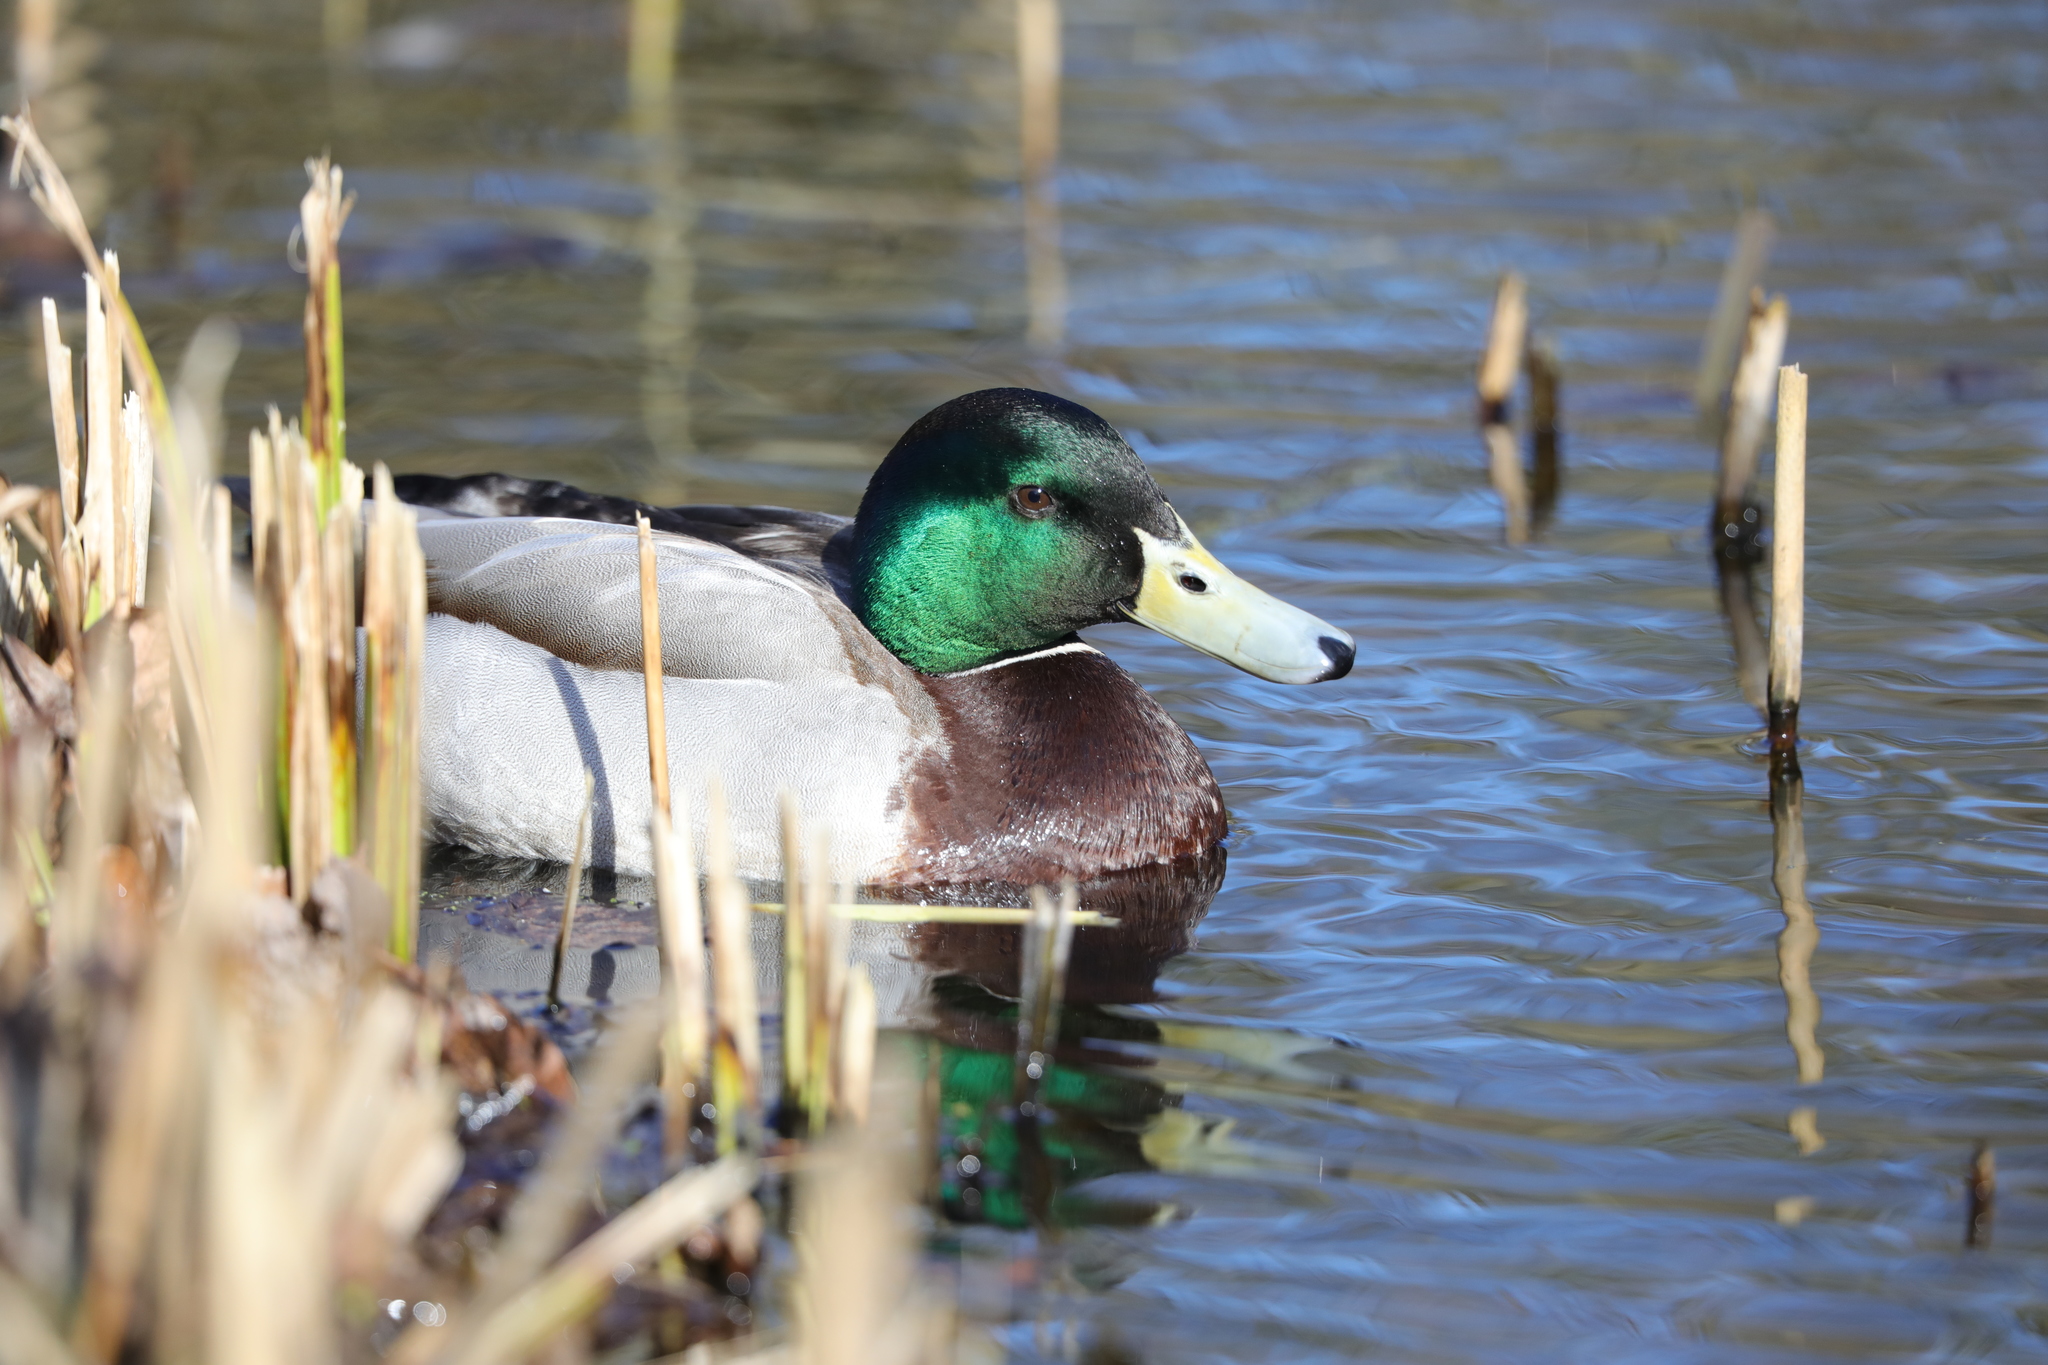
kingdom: Animalia
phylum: Chordata
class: Aves
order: Anseriformes
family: Anatidae
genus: Anas
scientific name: Anas platyrhynchos
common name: Mallard
